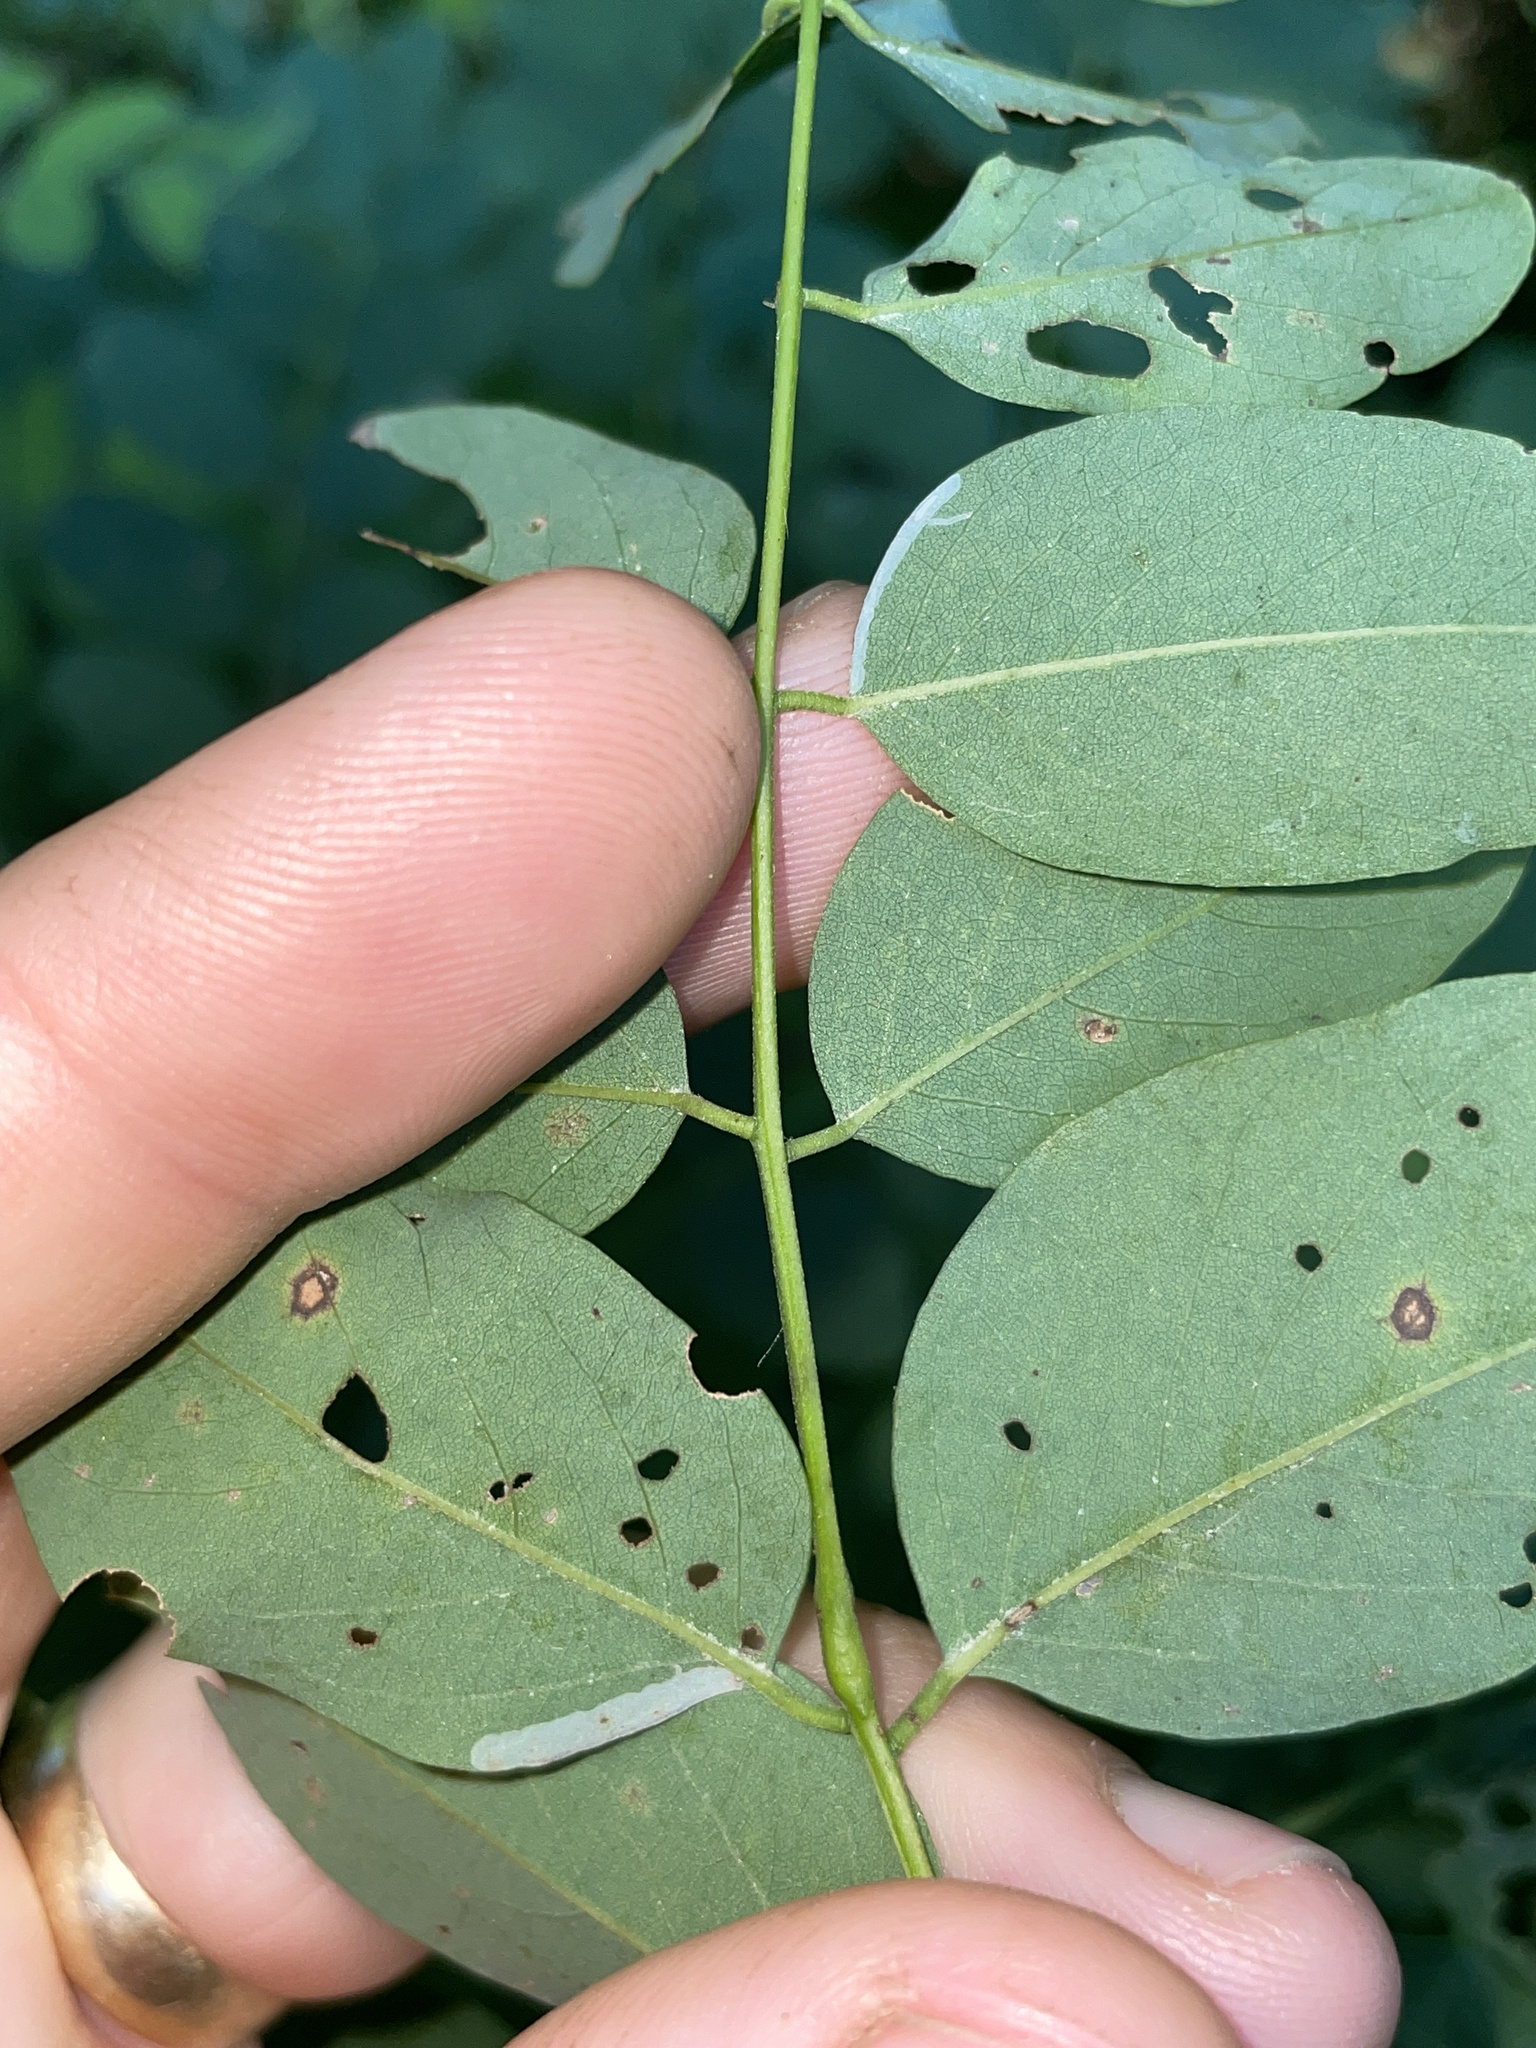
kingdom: Animalia
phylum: Arthropoda
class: Insecta
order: Lepidoptera
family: Gracillariidae
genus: Macrosaccus
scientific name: Macrosaccus robiniella
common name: Leaf blotch miner moth
